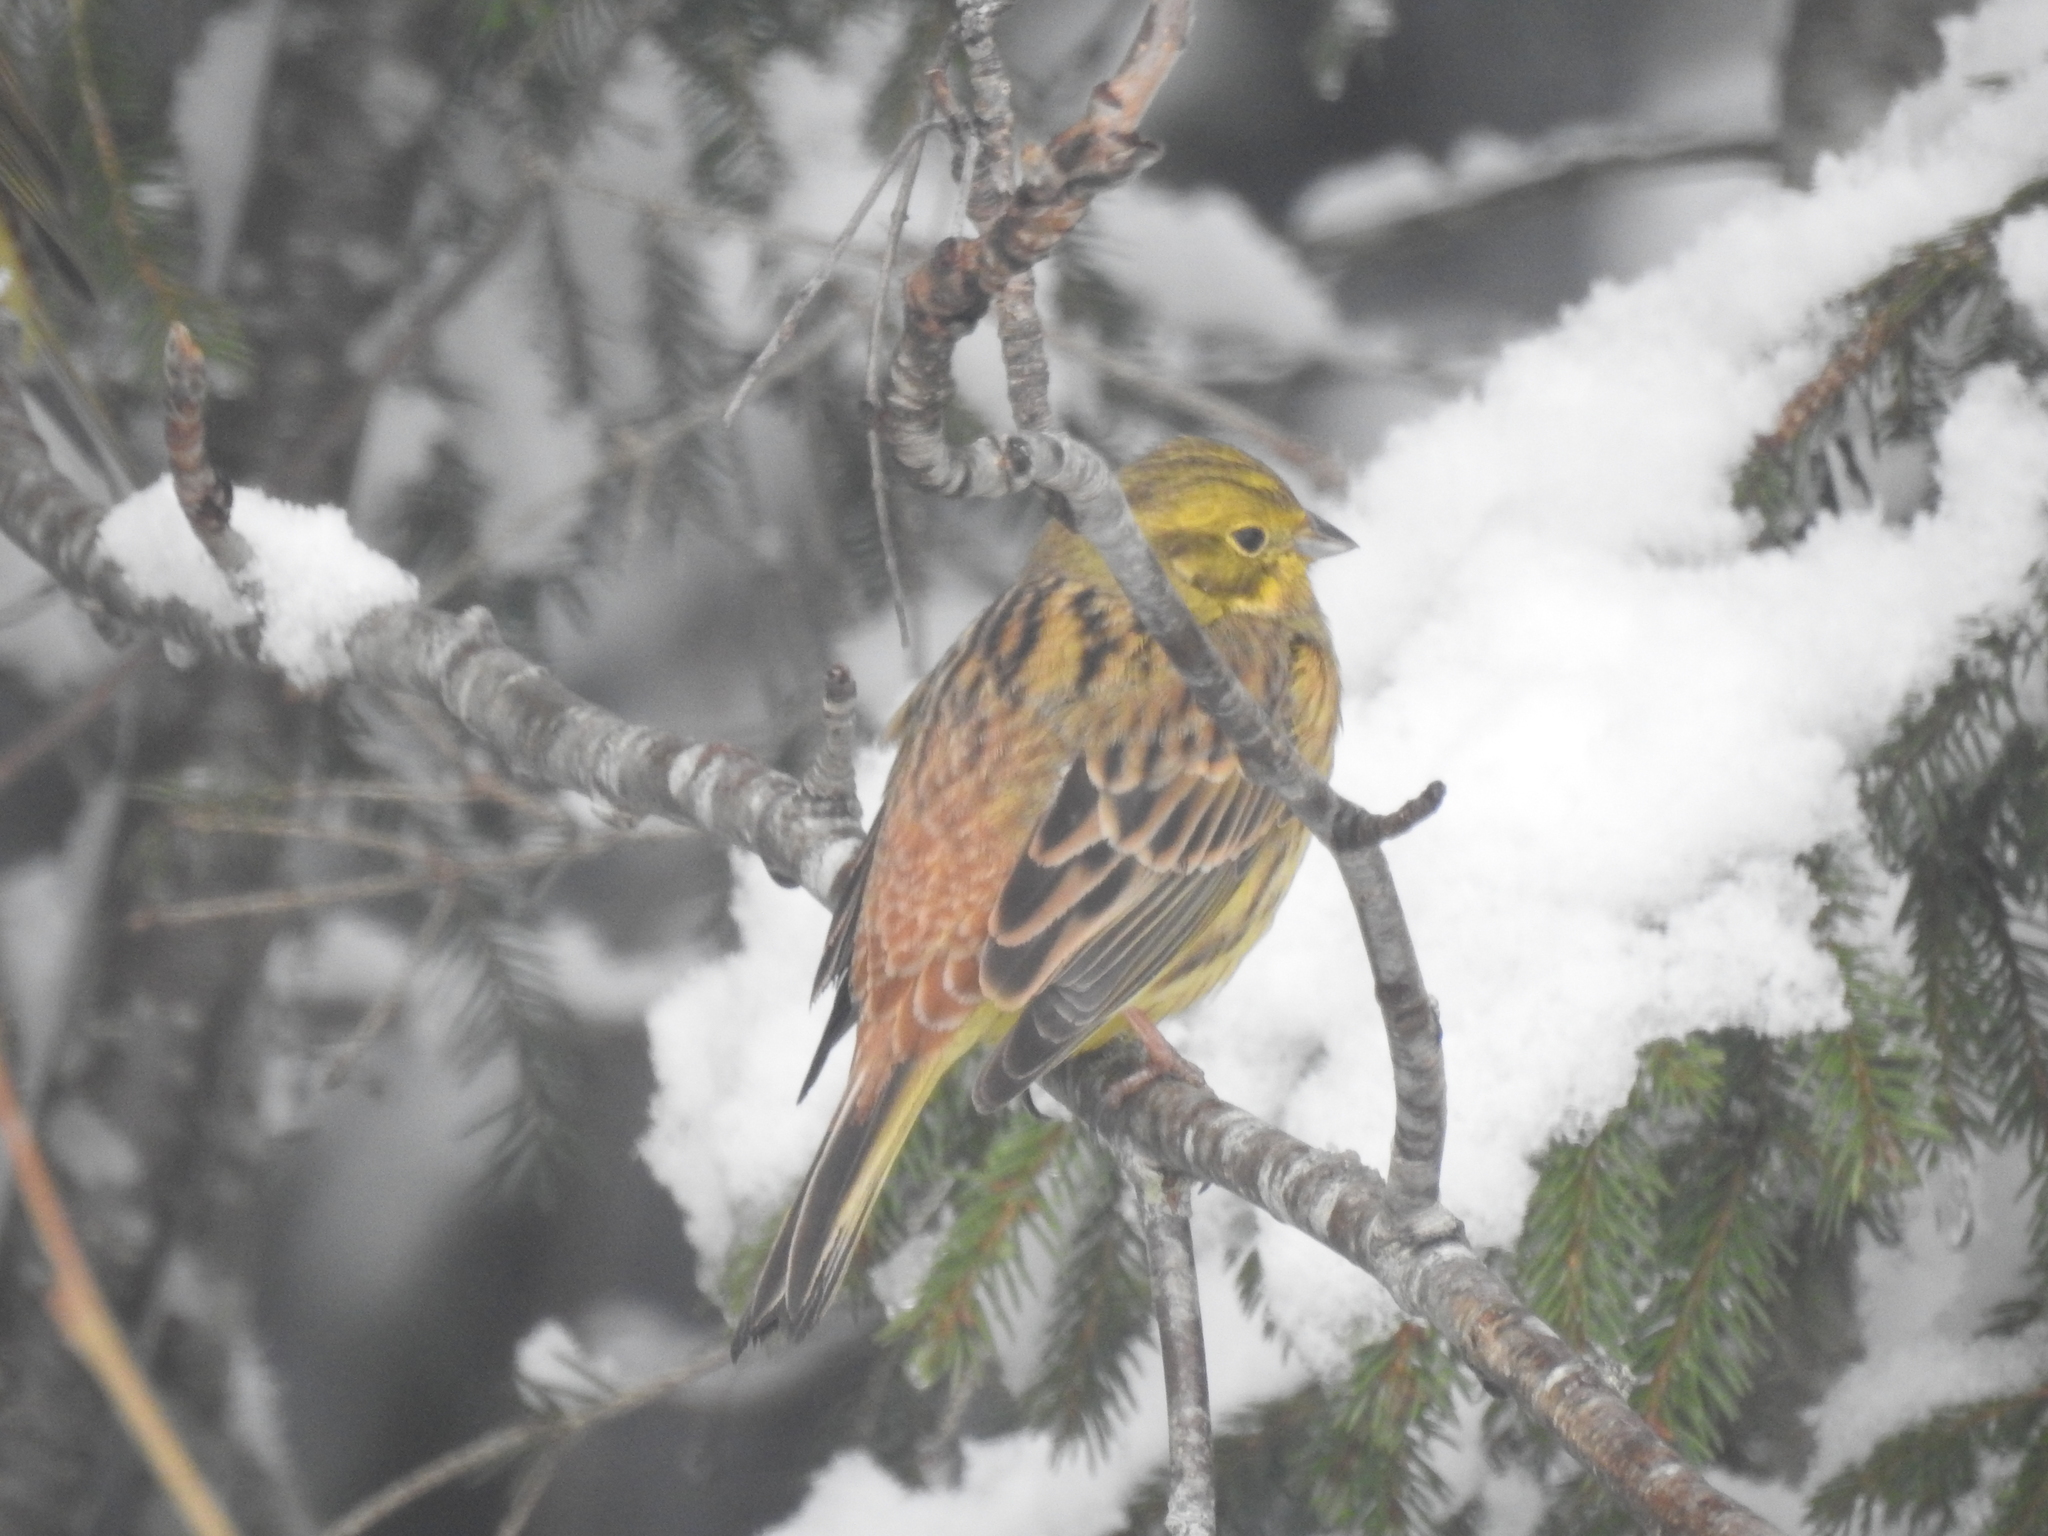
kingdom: Animalia
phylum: Chordata
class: Aves
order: Passeriformes
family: Emberizidae
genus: Emberiza
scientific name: Emberiza citrinella
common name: Yellowhammer
